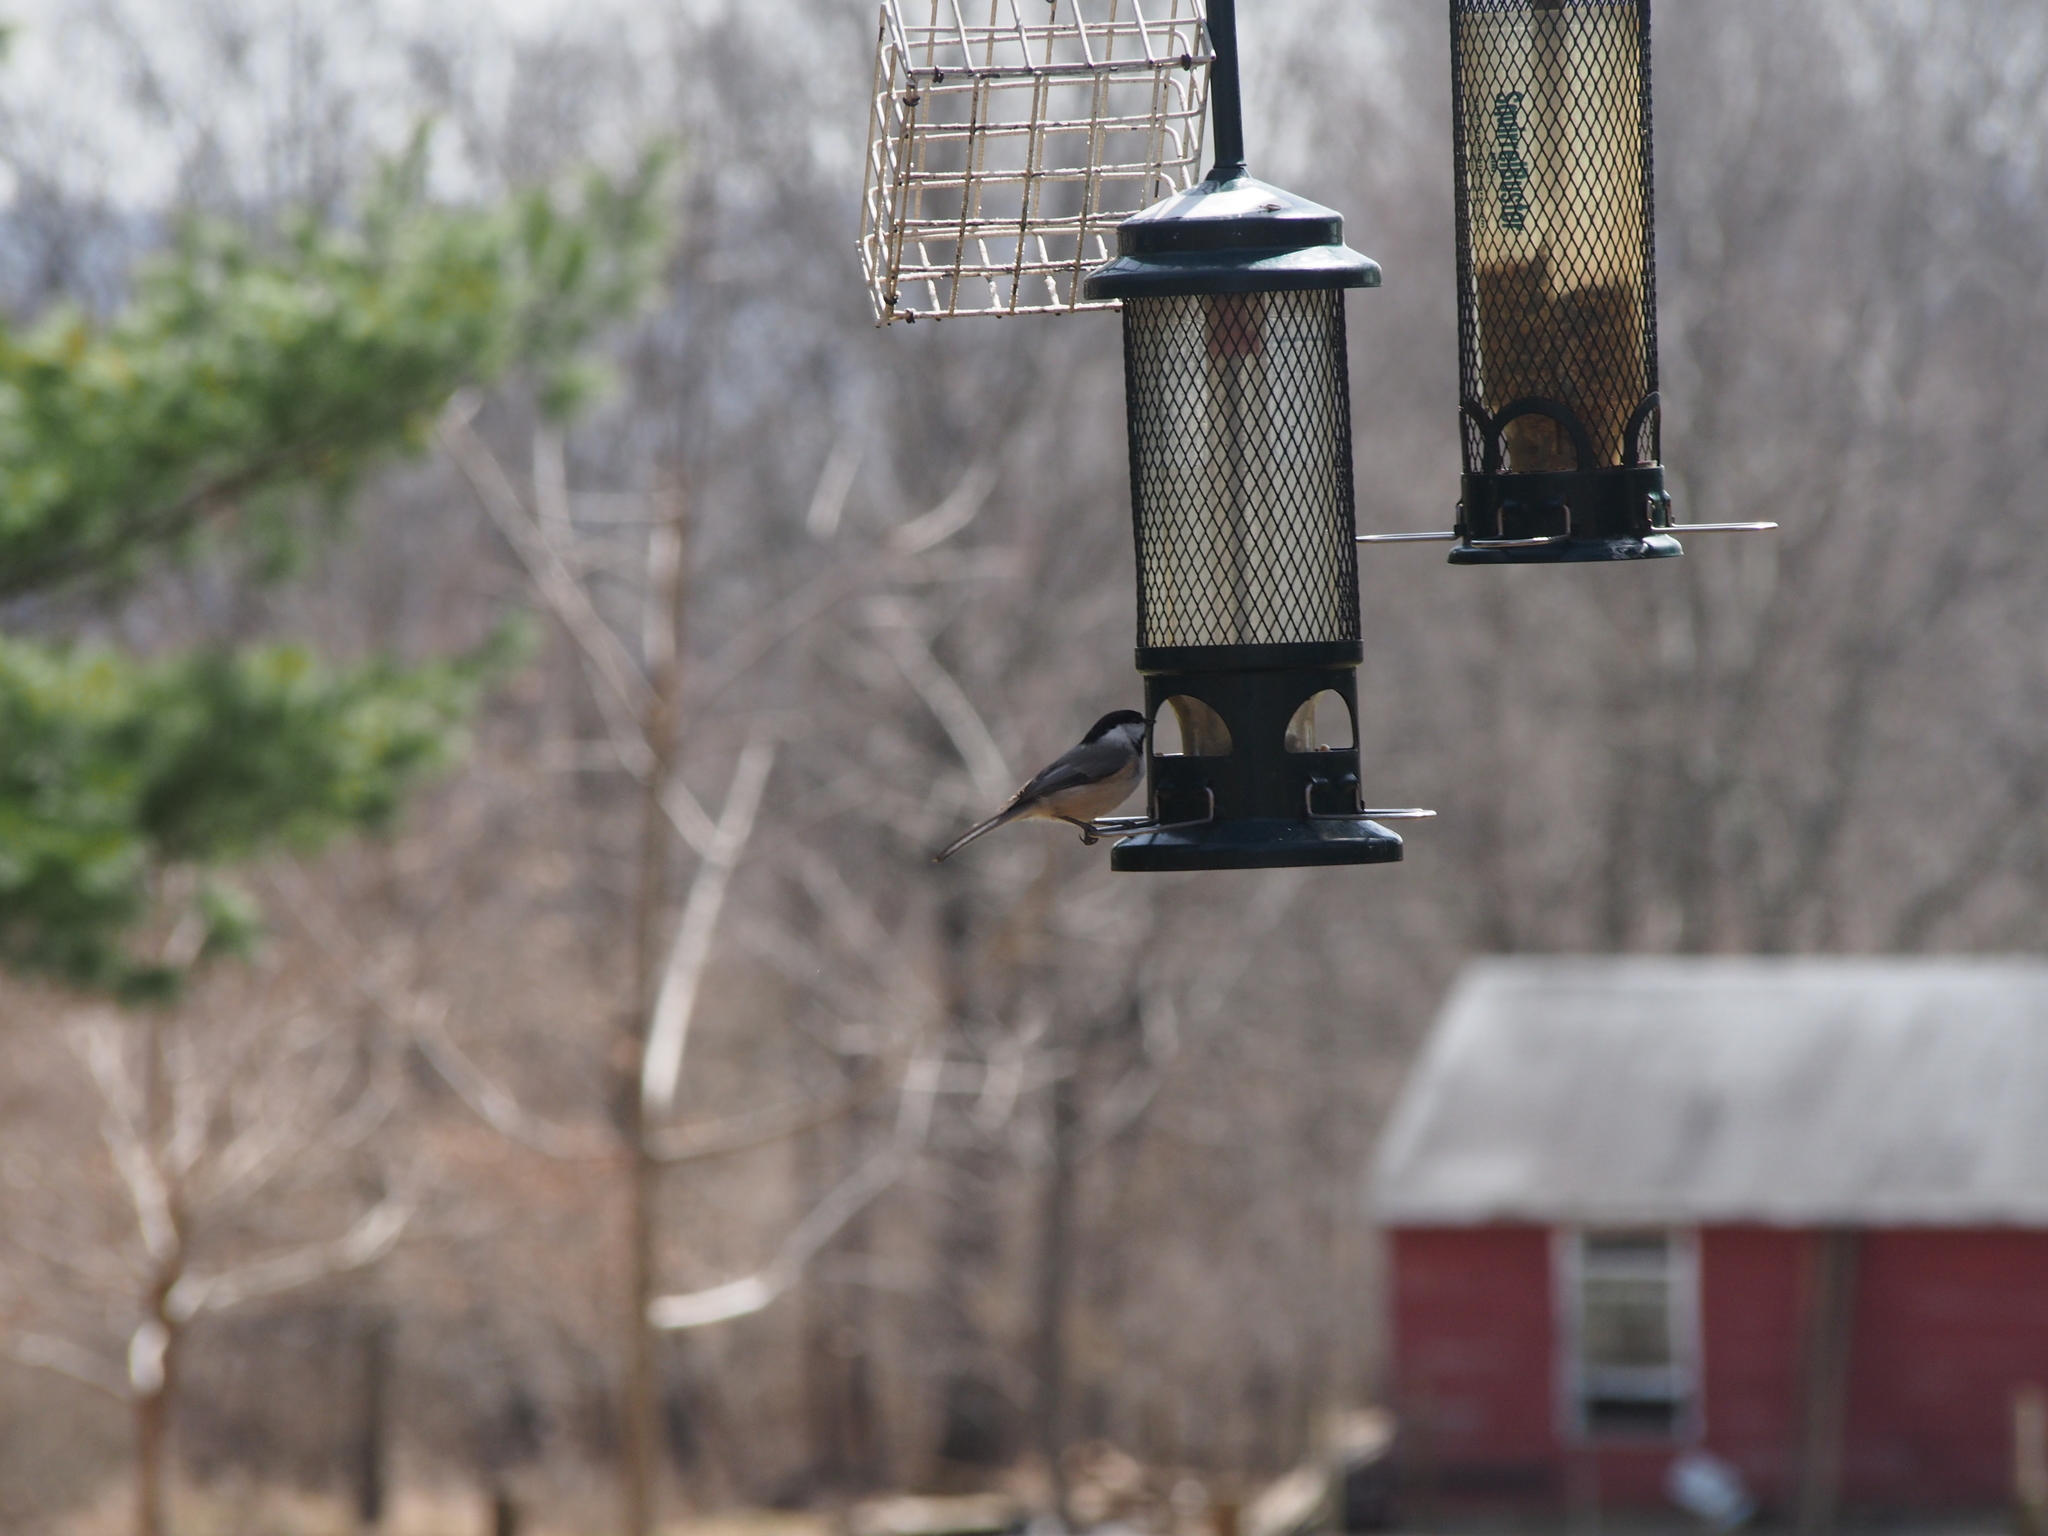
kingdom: Animalia
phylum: Chordata
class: Aves
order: Passeriformes
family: Paridae
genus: Poecile
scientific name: Poecile
